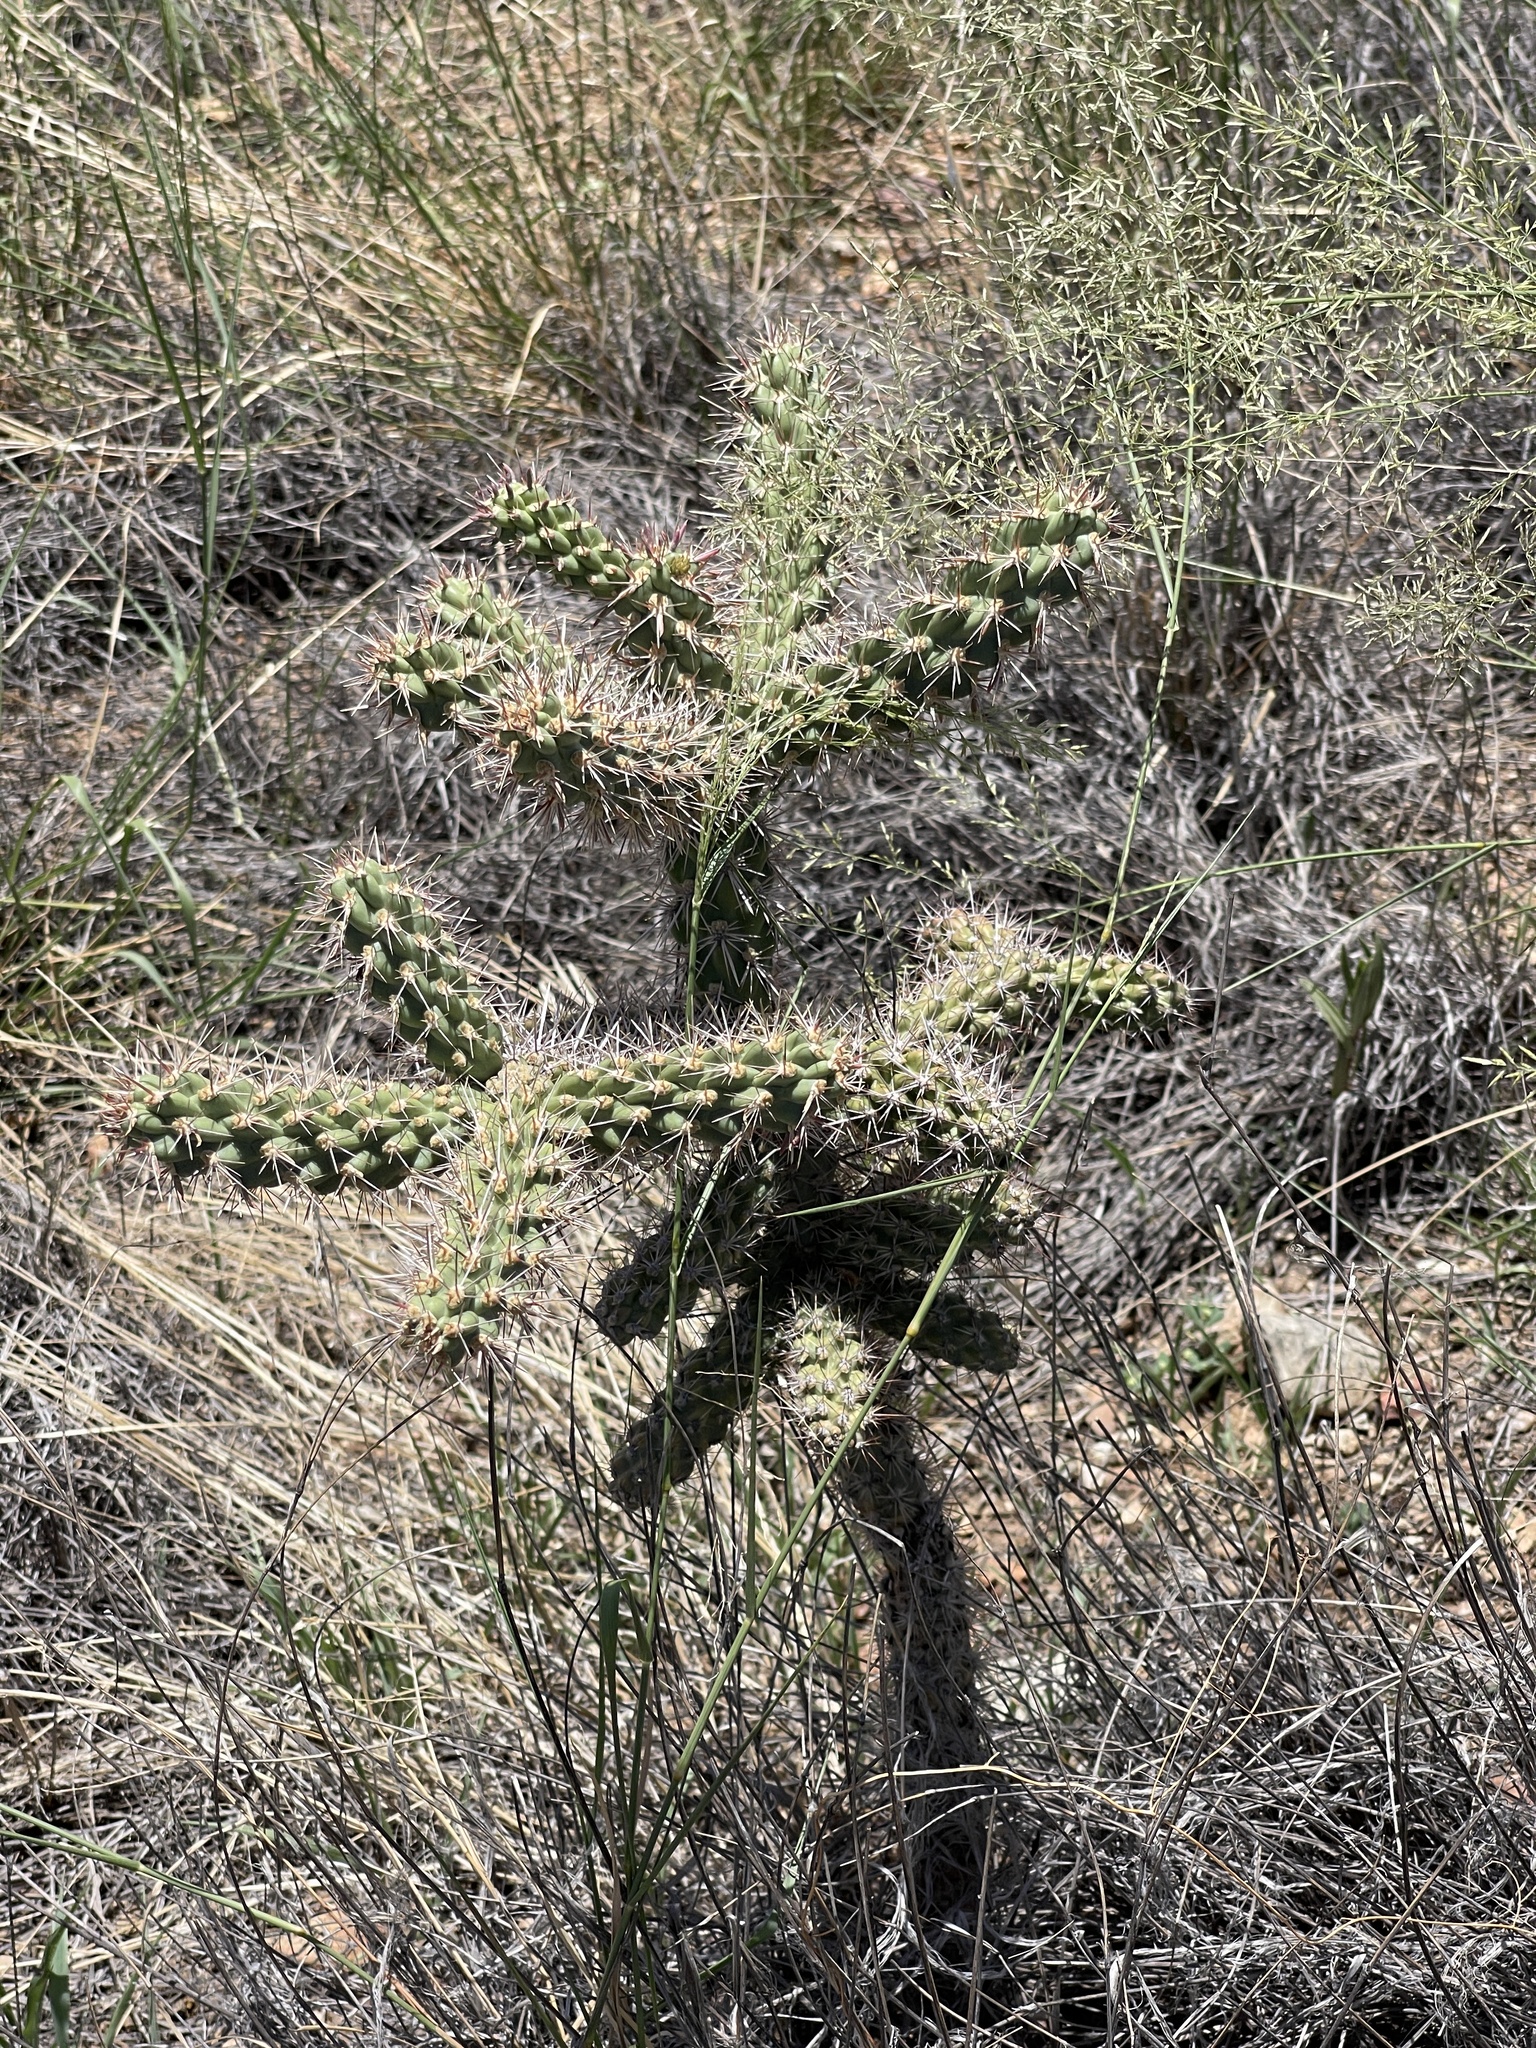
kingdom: Plantae
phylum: Tracheophyta
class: Magnoliopsida
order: Caryophyllales
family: Cactaceae
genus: Cylindropuntia
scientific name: Cylindropuntia imbricata
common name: Candelabrum cactus
